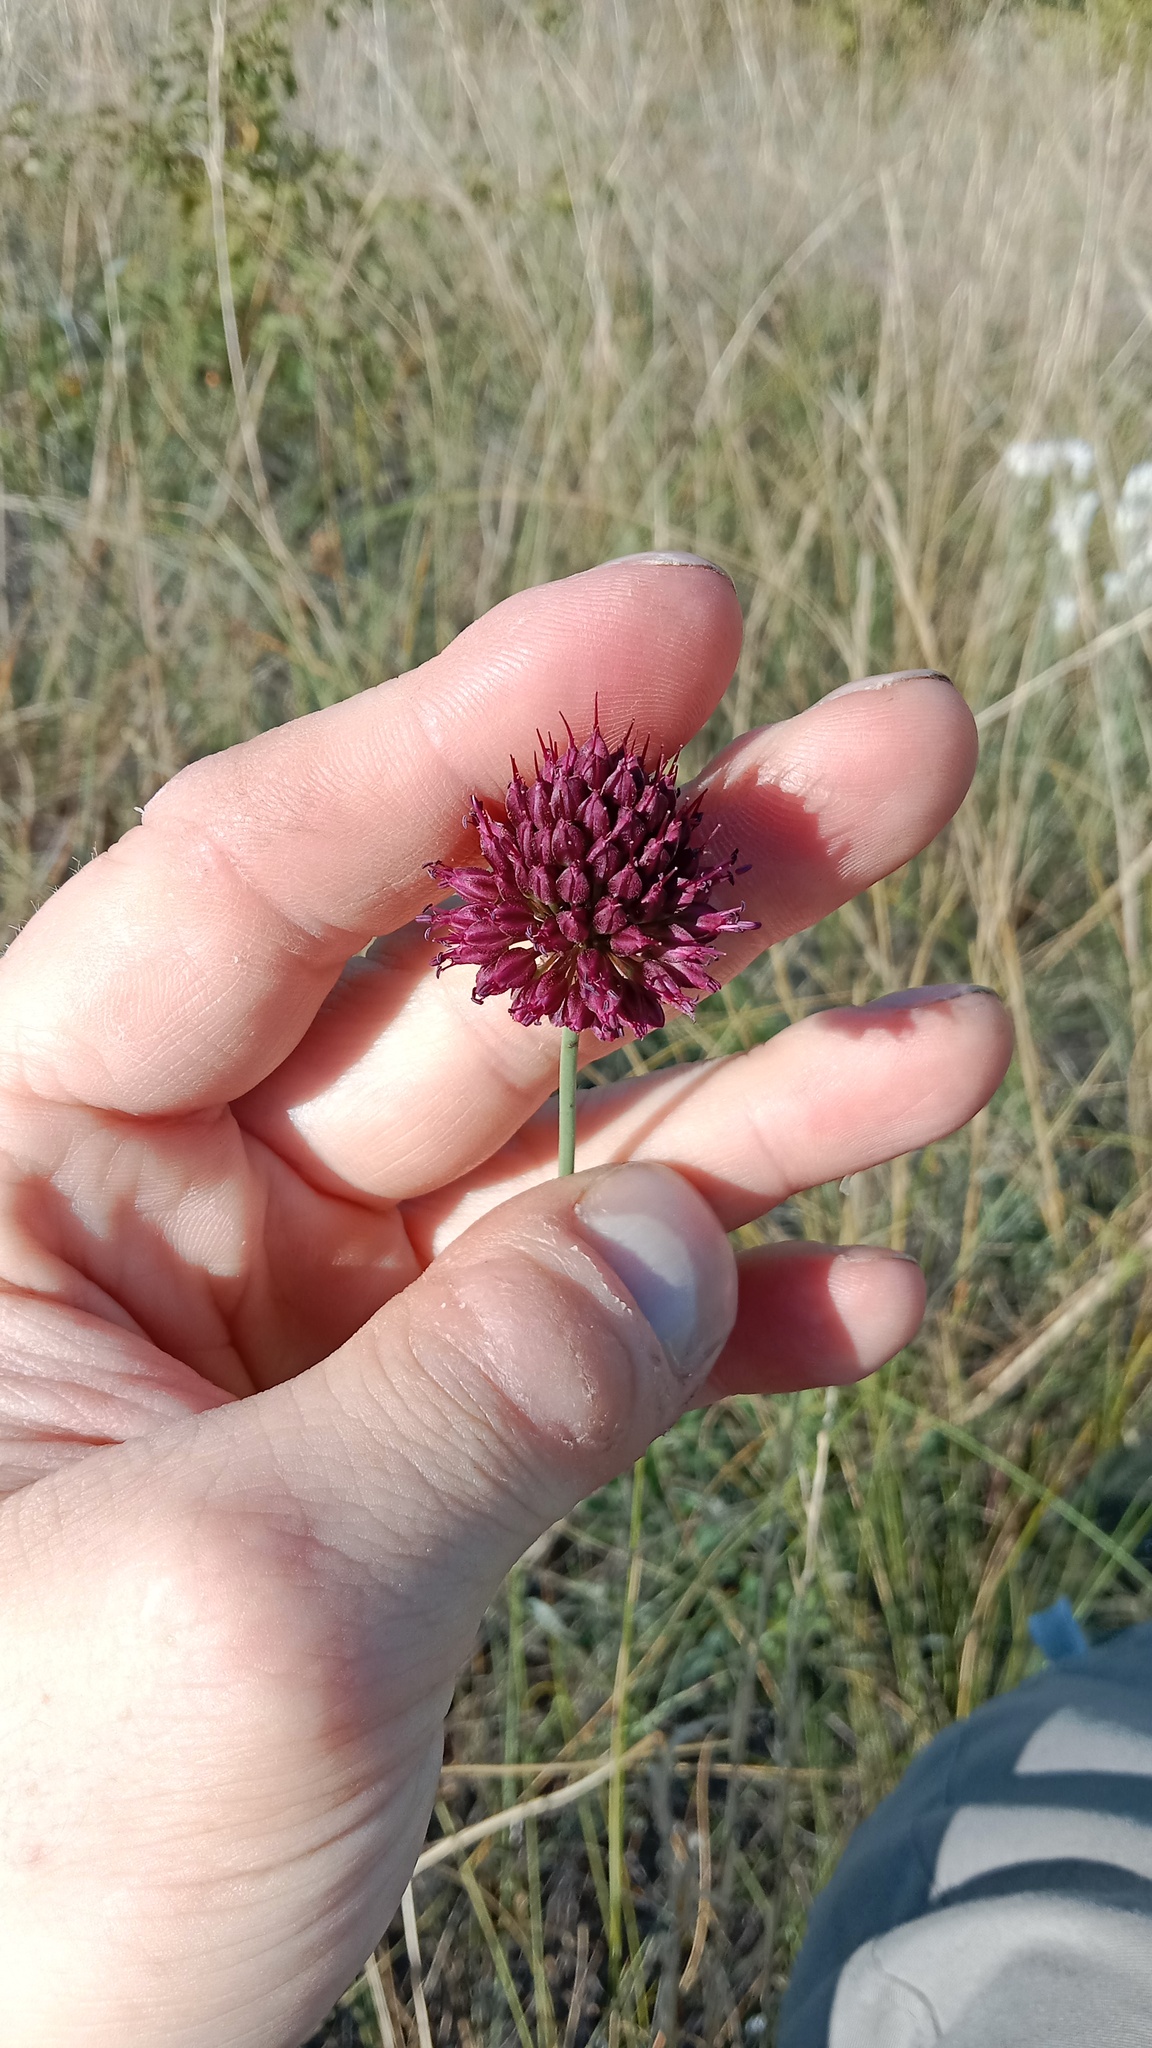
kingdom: Plantae
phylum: Tracheophyta
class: Liliopsida
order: Asparagales
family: Amaryllidaceae
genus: Allium
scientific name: Allium sphaerocephalon
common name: Round-headed leek
